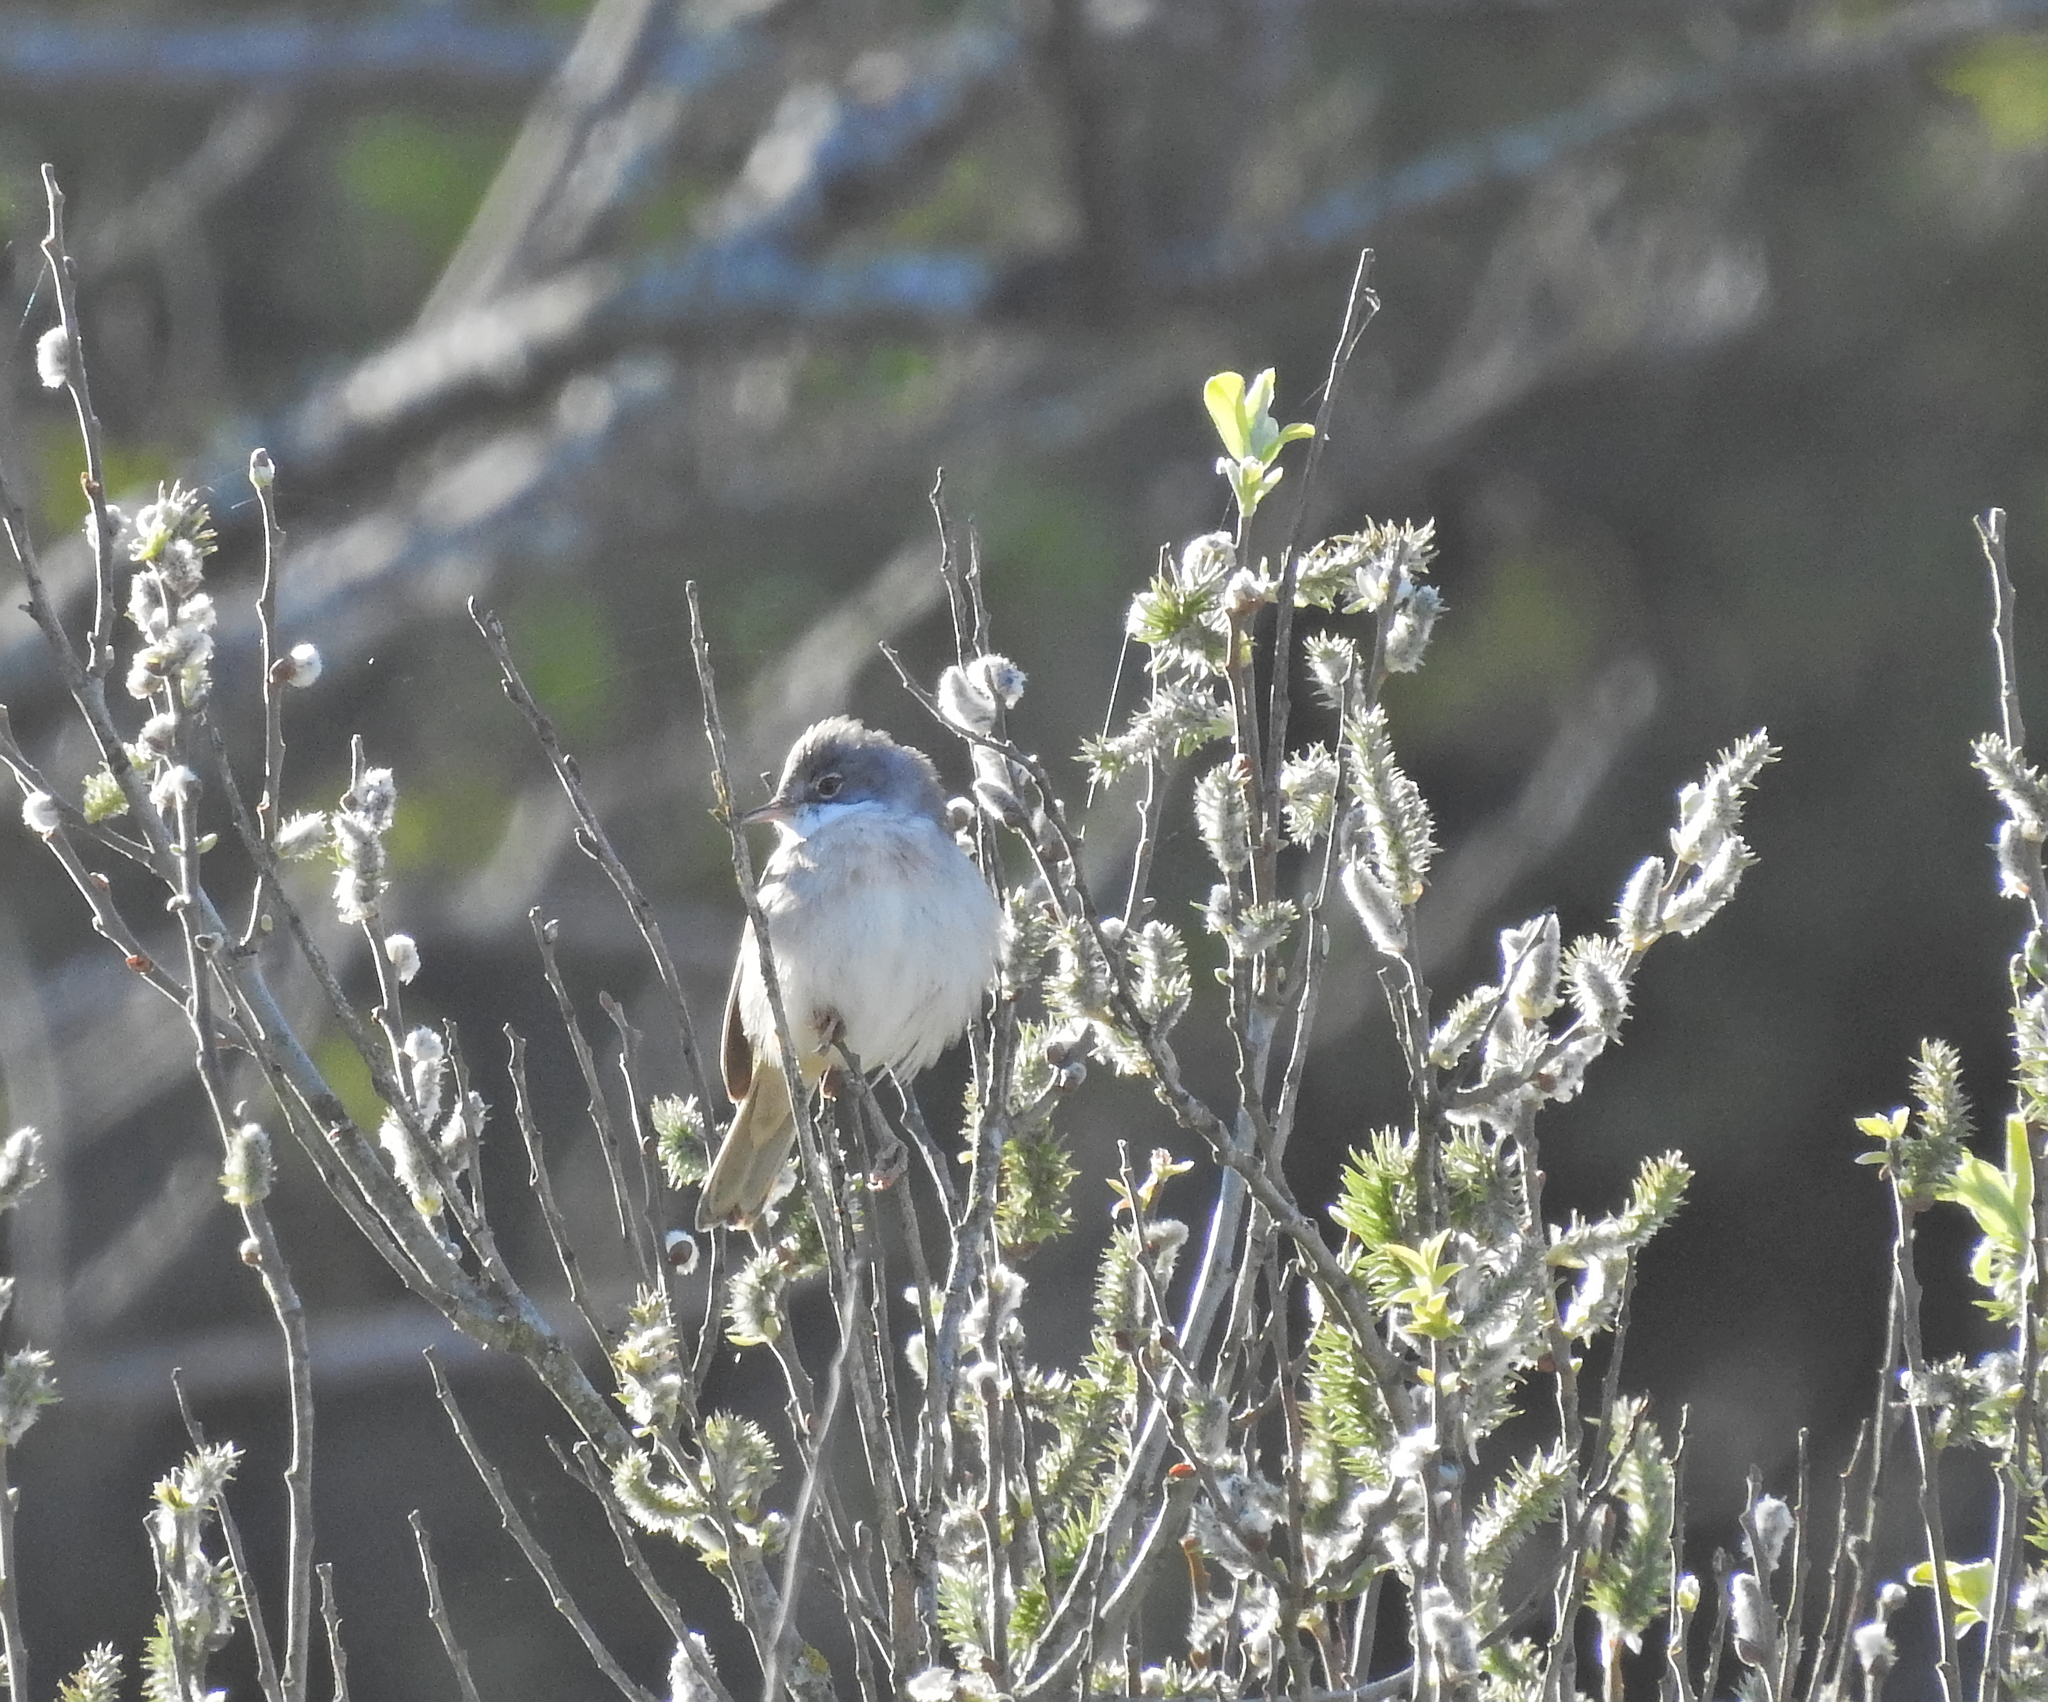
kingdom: Animalia
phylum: Chordata
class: Aves
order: Passeriformes
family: Sylviidae
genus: Sylvia
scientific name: Sylvia communis
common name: Common whitethroat
